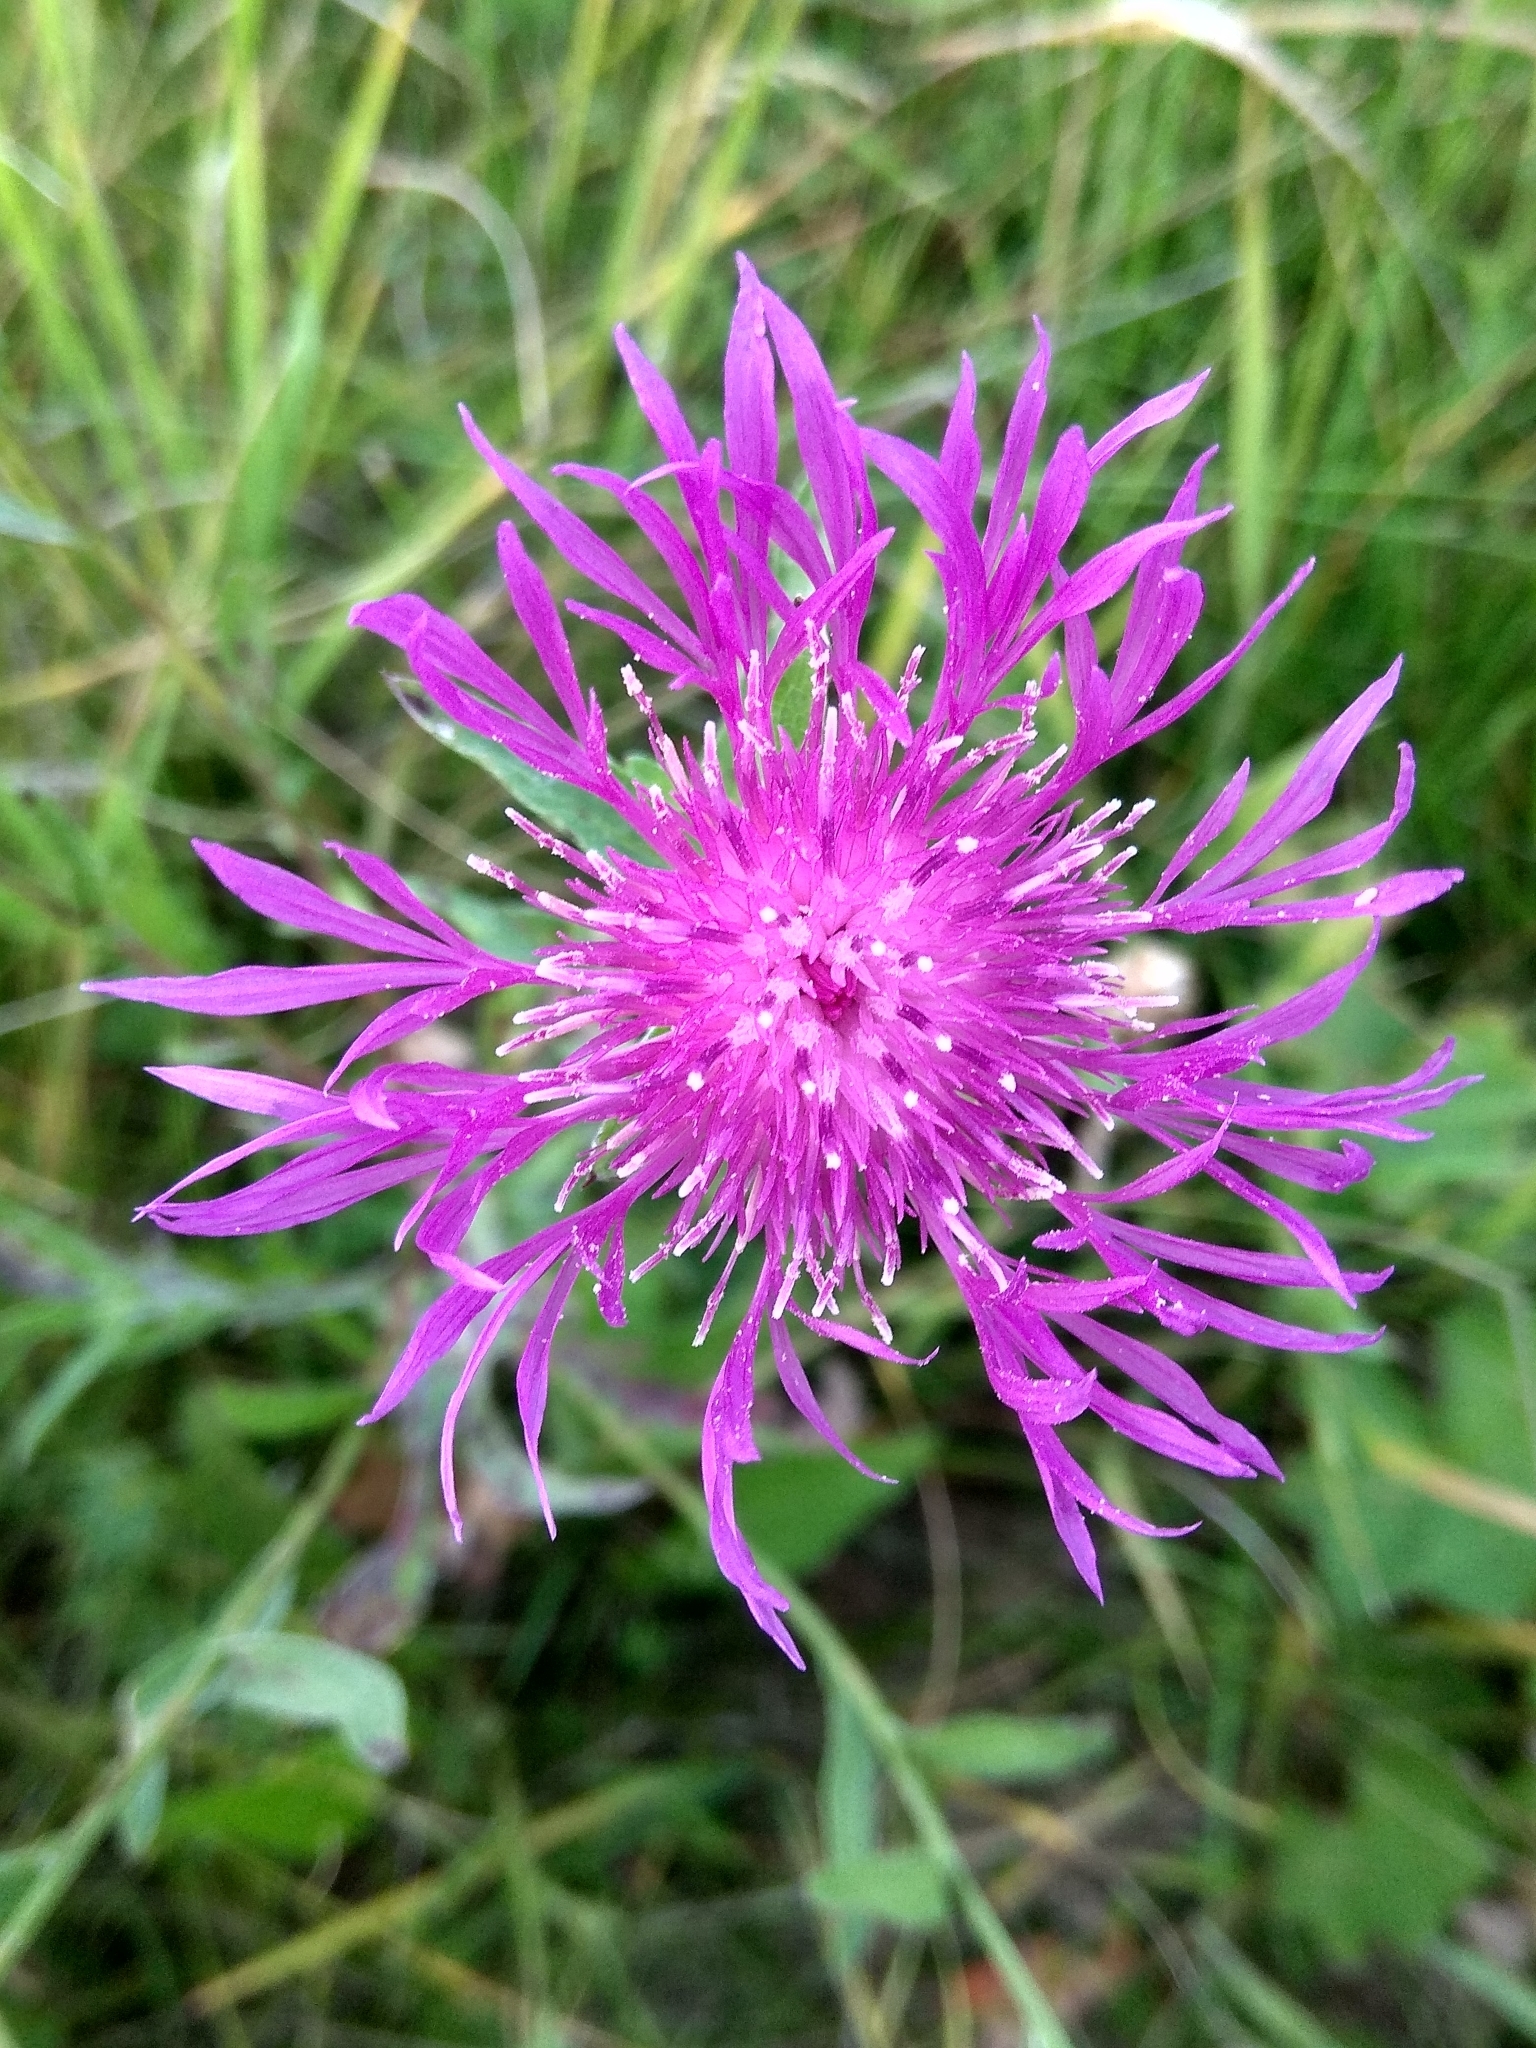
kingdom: Plantae
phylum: Tracheophyta
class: Magnoliopsida
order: Asterales
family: Asteraceae
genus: Centaurea
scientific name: Centaurea jacea
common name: Brown knapweed
